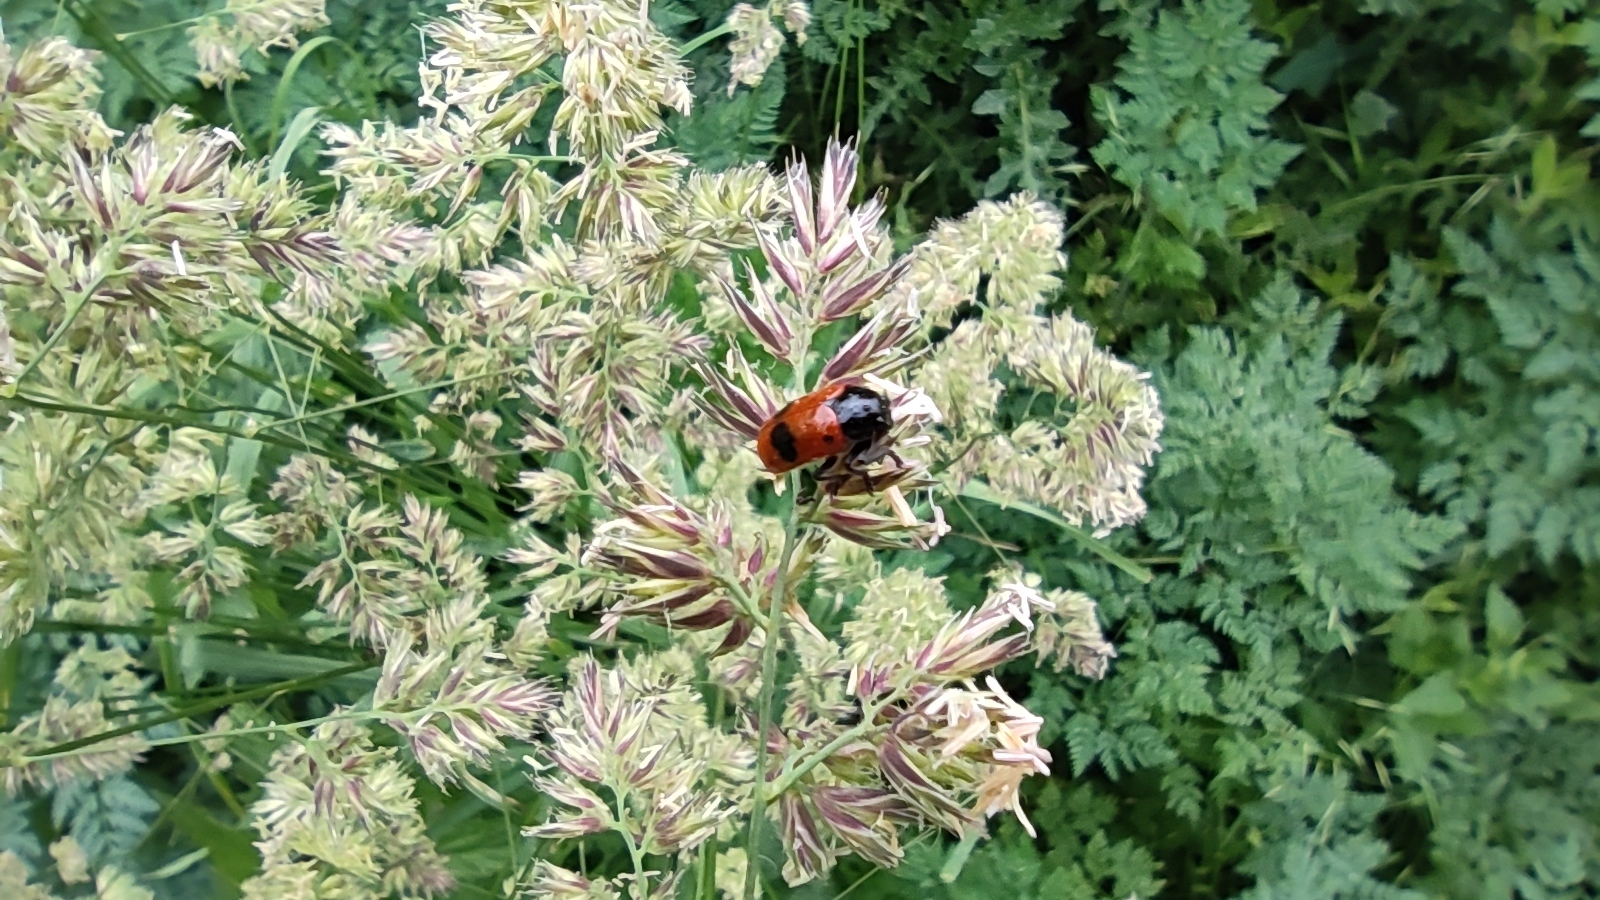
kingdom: Animalia
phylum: Arthropoda
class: Insecta
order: Coleoptera
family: Chrysomelidae
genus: Clytra
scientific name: Clytra laeviuscula
